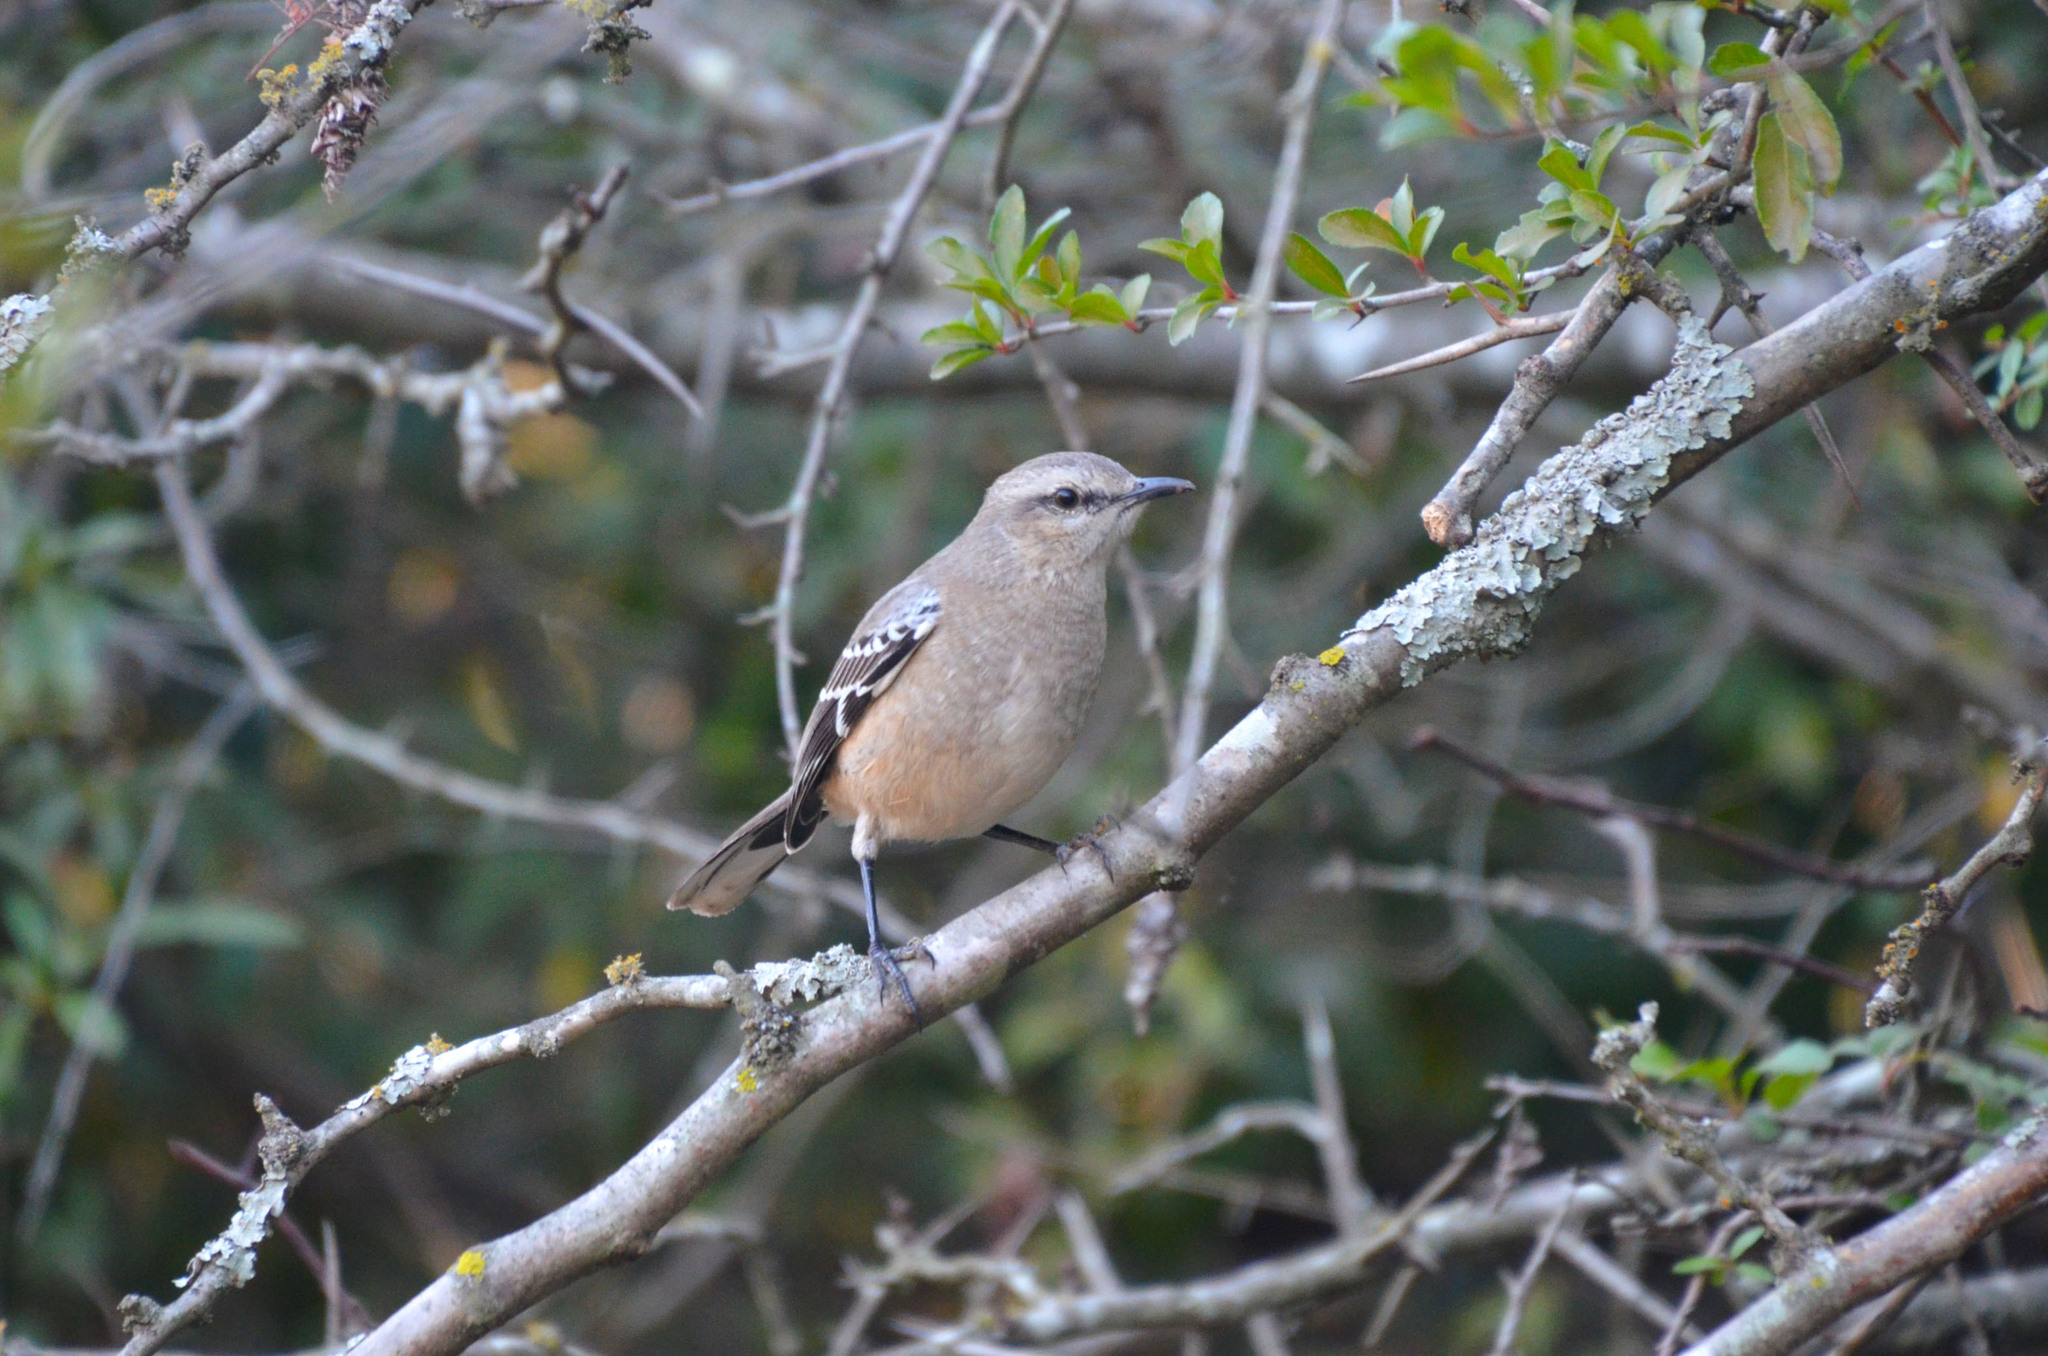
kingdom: Animalia
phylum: Chordata
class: Aves
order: Passeriformes
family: Mimidae
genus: Mimus
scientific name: Mimus patagonicus
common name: Patagonian mockingbird
